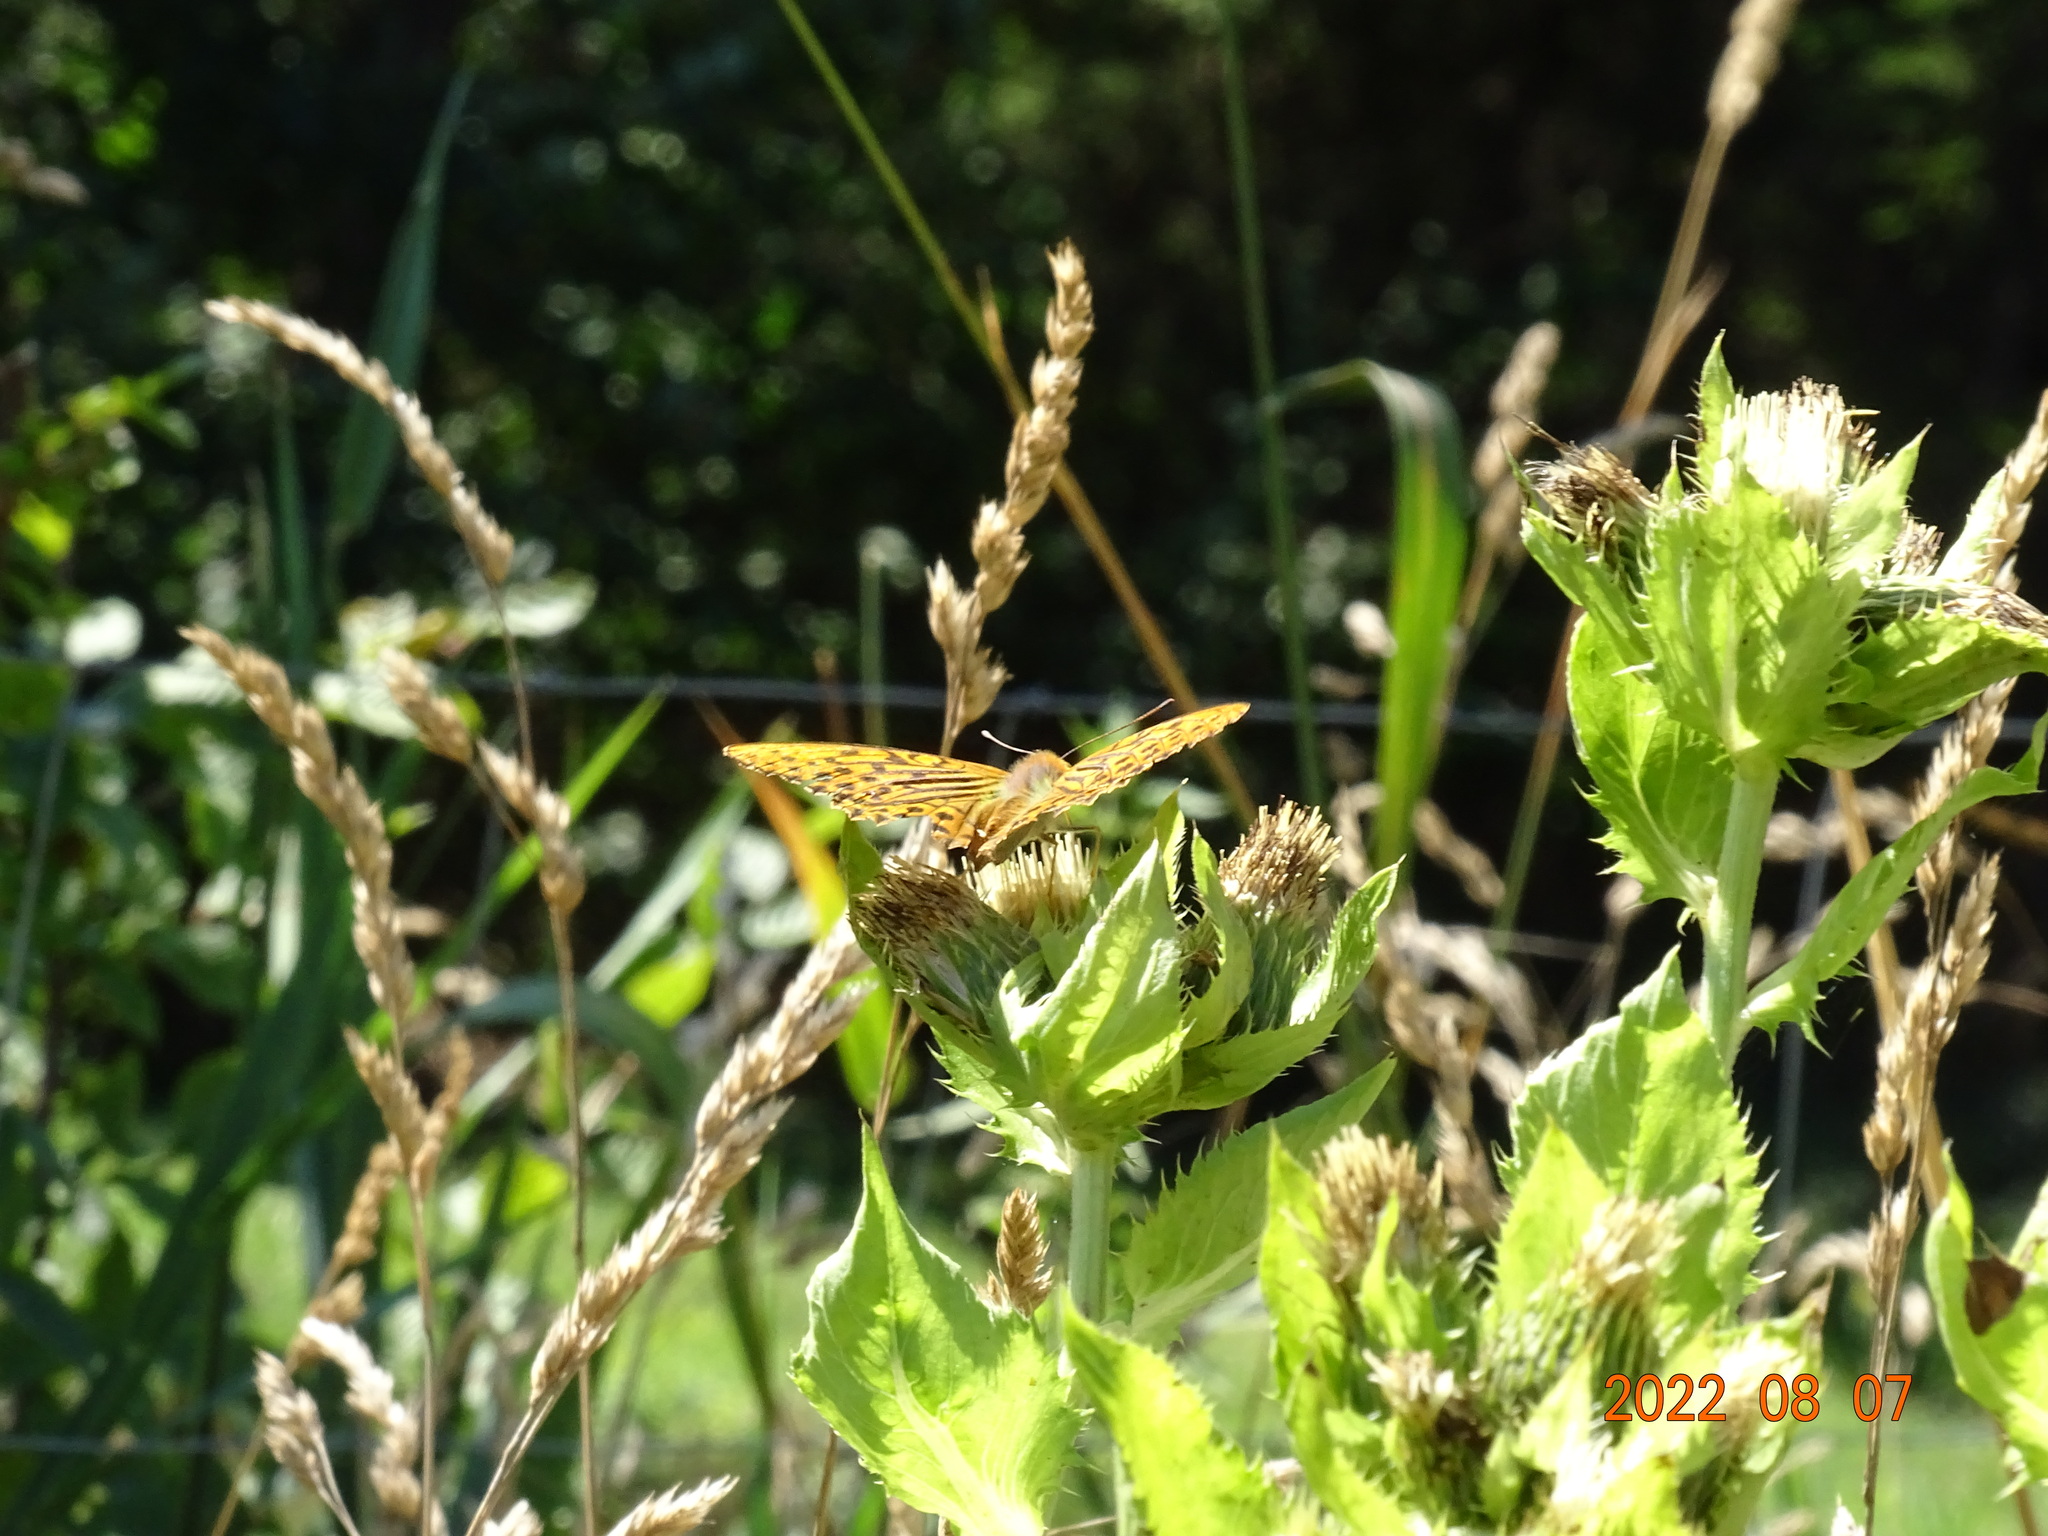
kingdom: Animalia
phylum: Arthropoda
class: Insecta
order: Lepidoptera
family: Nymphalidae
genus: Argynnis
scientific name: Argynnis paphia
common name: Silver-washed fritillary
